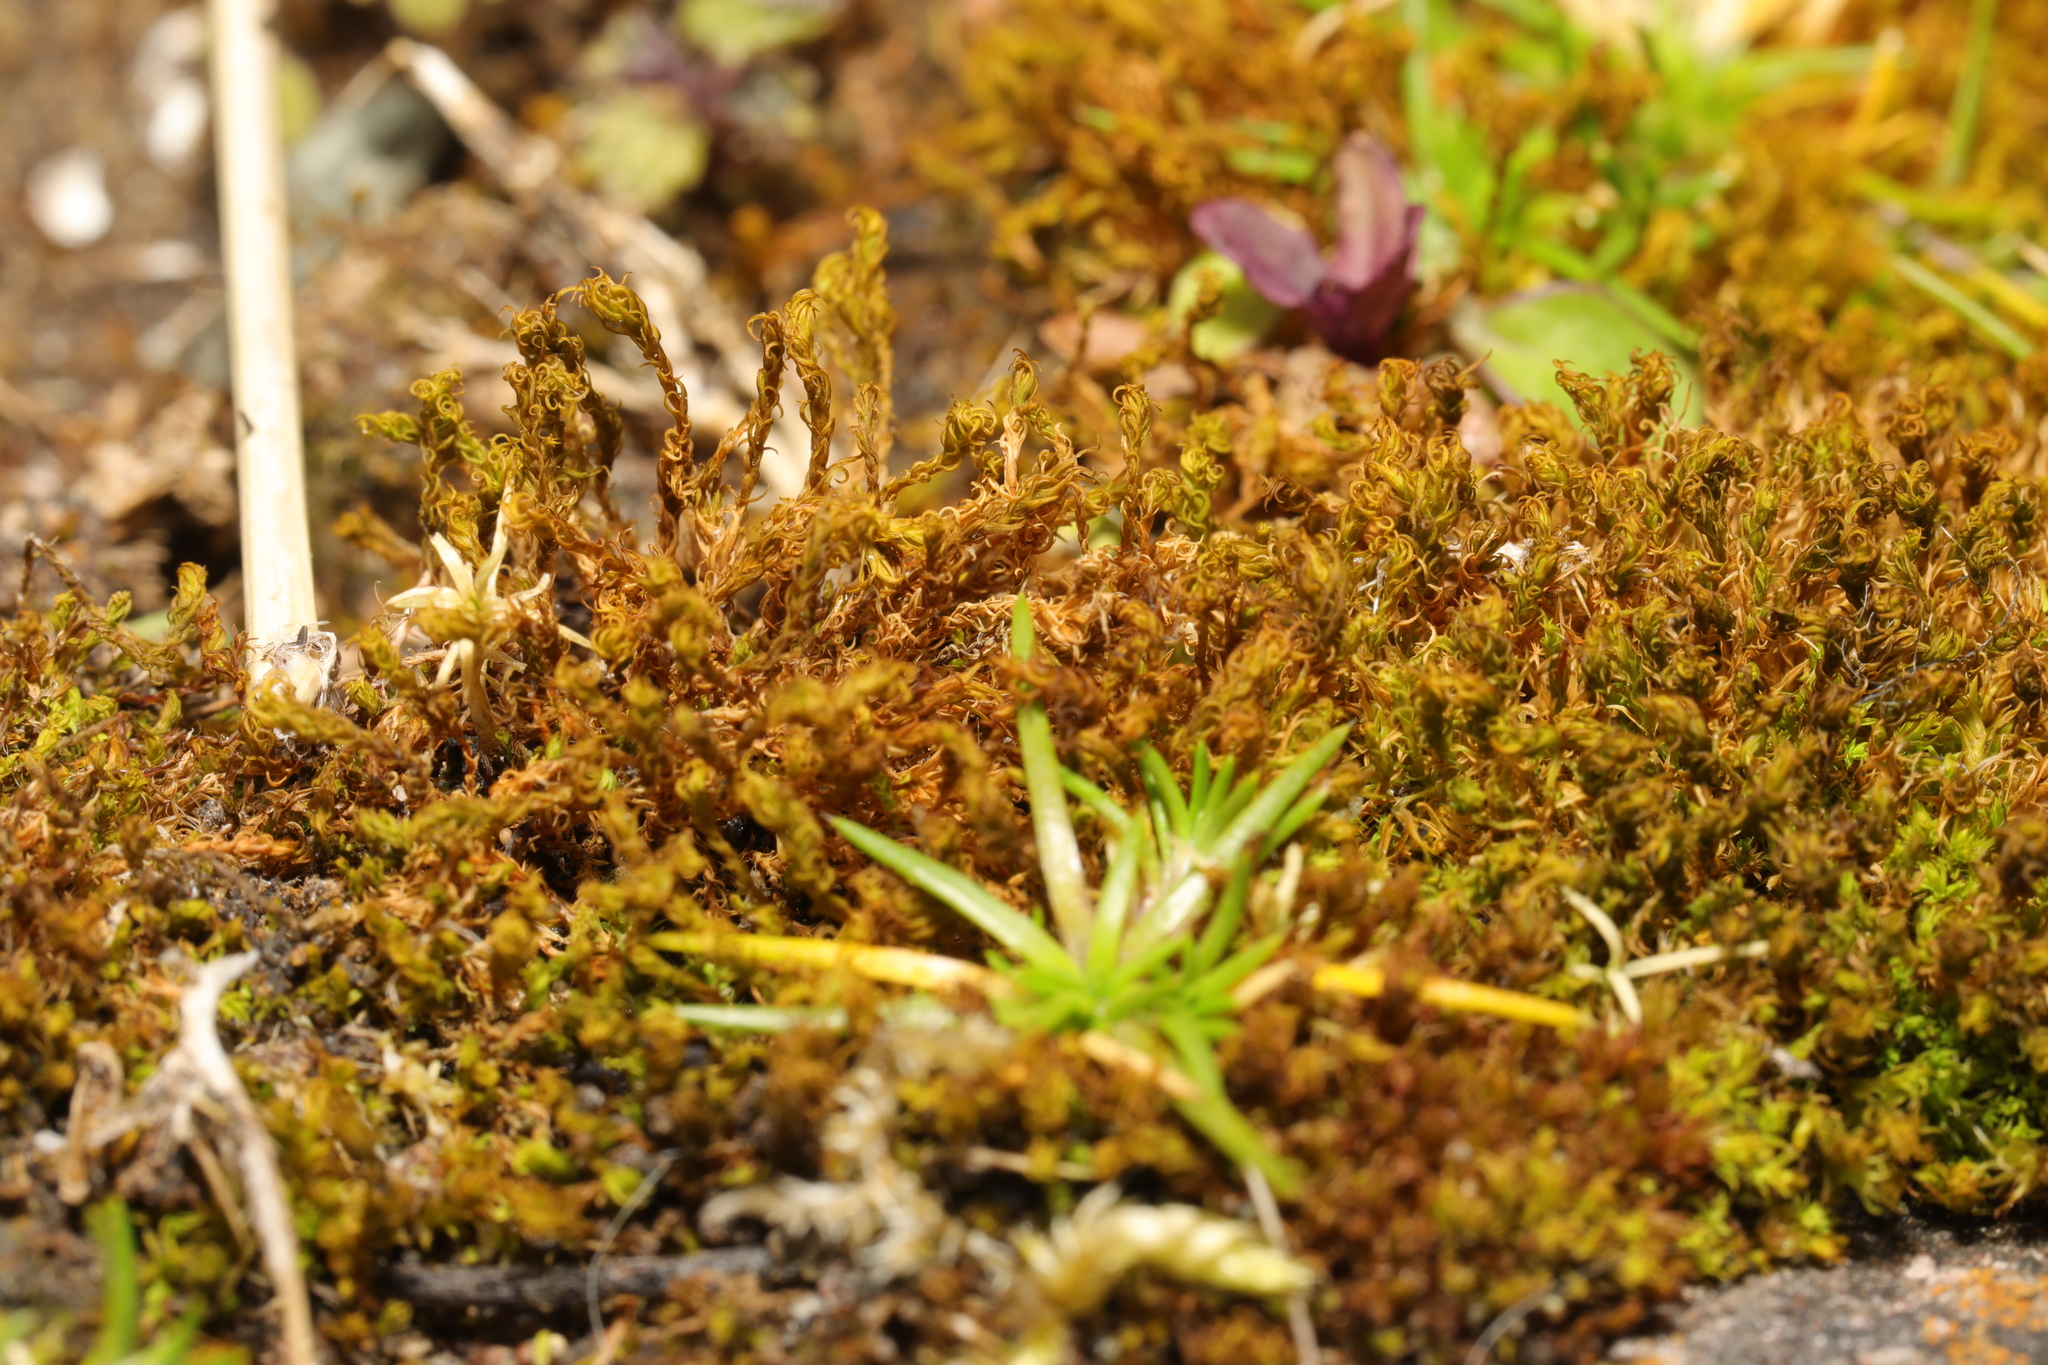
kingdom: Plantae
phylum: Bryophyta
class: Bryopsida
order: Pottiales
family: Pottiaceae
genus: Vinealobryum
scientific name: Vinealobryum insulanum
